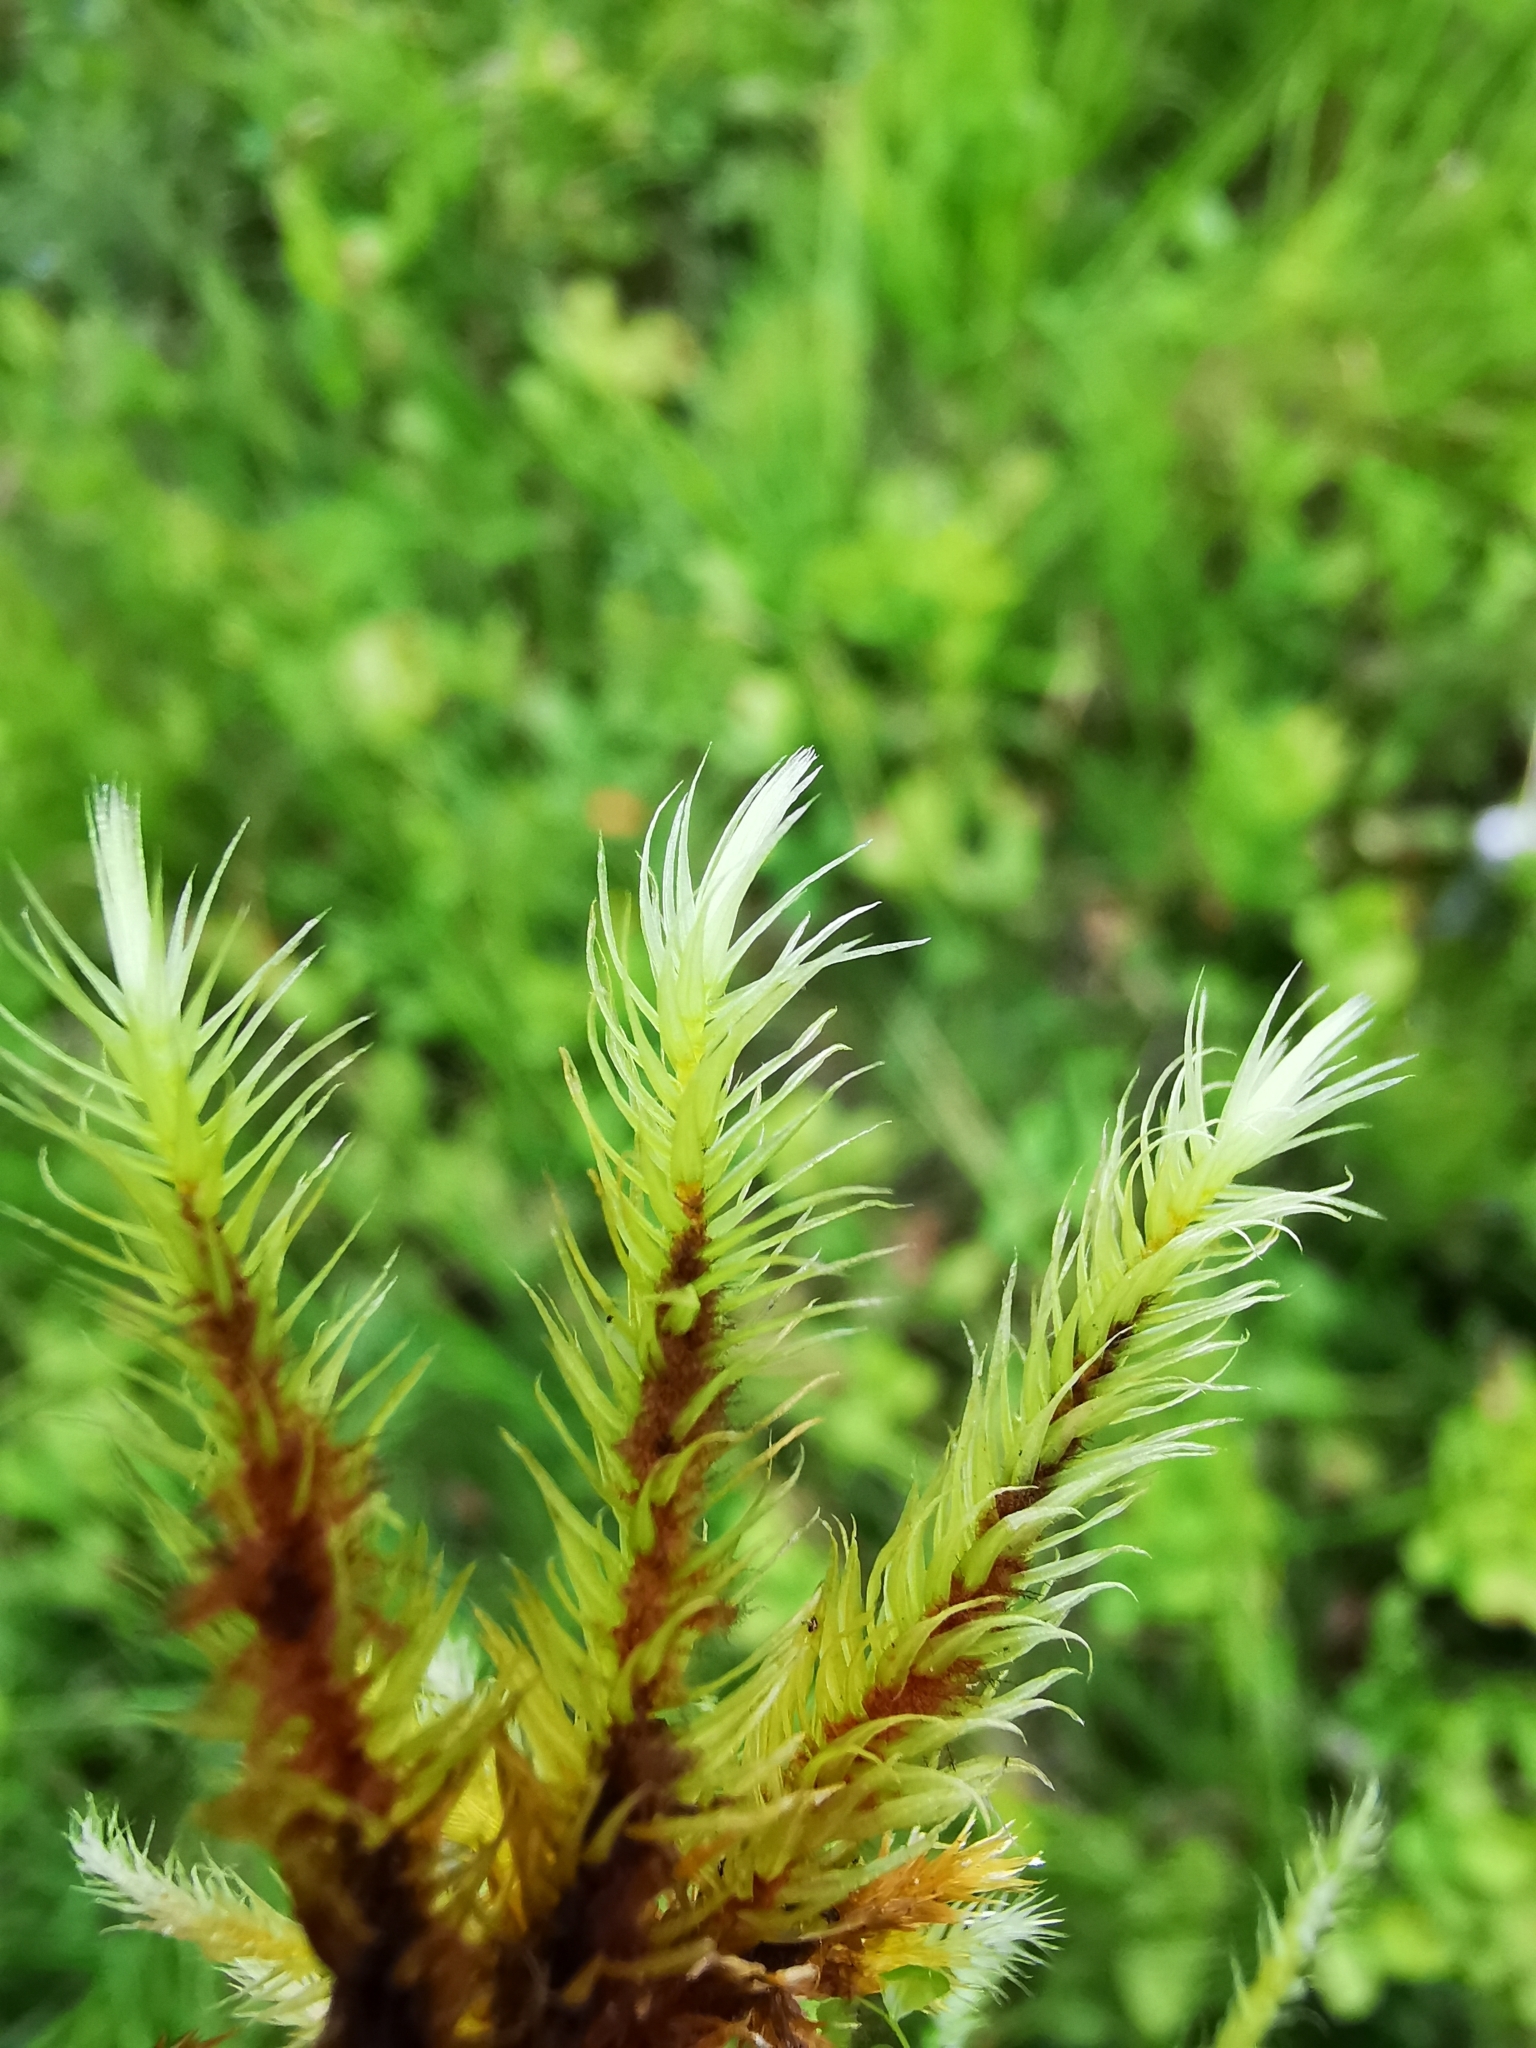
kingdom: Plantae
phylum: Bryophyta
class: Bryopsida
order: Aulacomniales
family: Aulacomniaceae
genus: Aulacomnium
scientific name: Aulacomnium palustre
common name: Bog groove-moss
